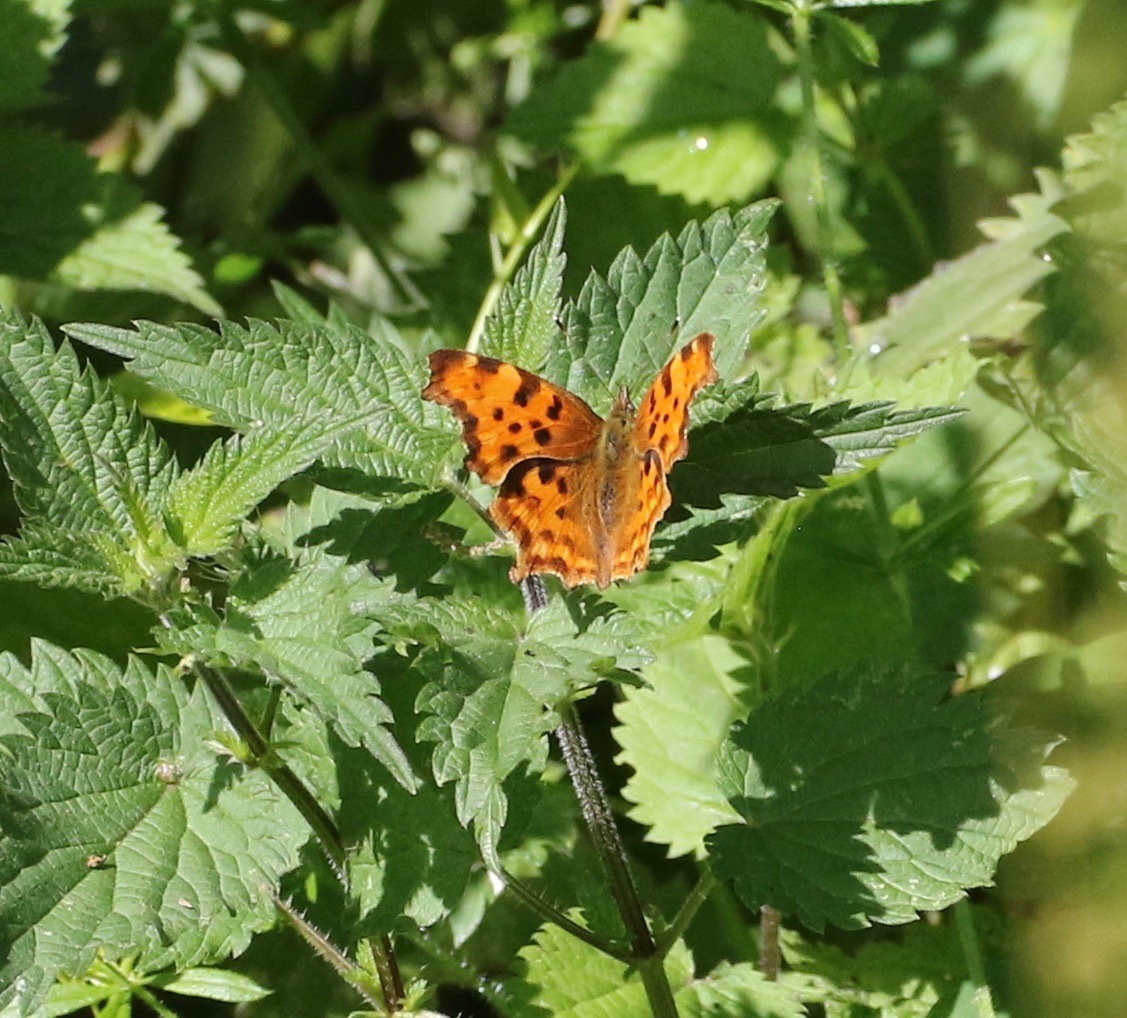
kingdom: Animalia
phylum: Arthropoda
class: Insecta
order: Lepidoptera
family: Nymphalidae
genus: Polygonia
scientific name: Polygonia c-album
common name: Comma
